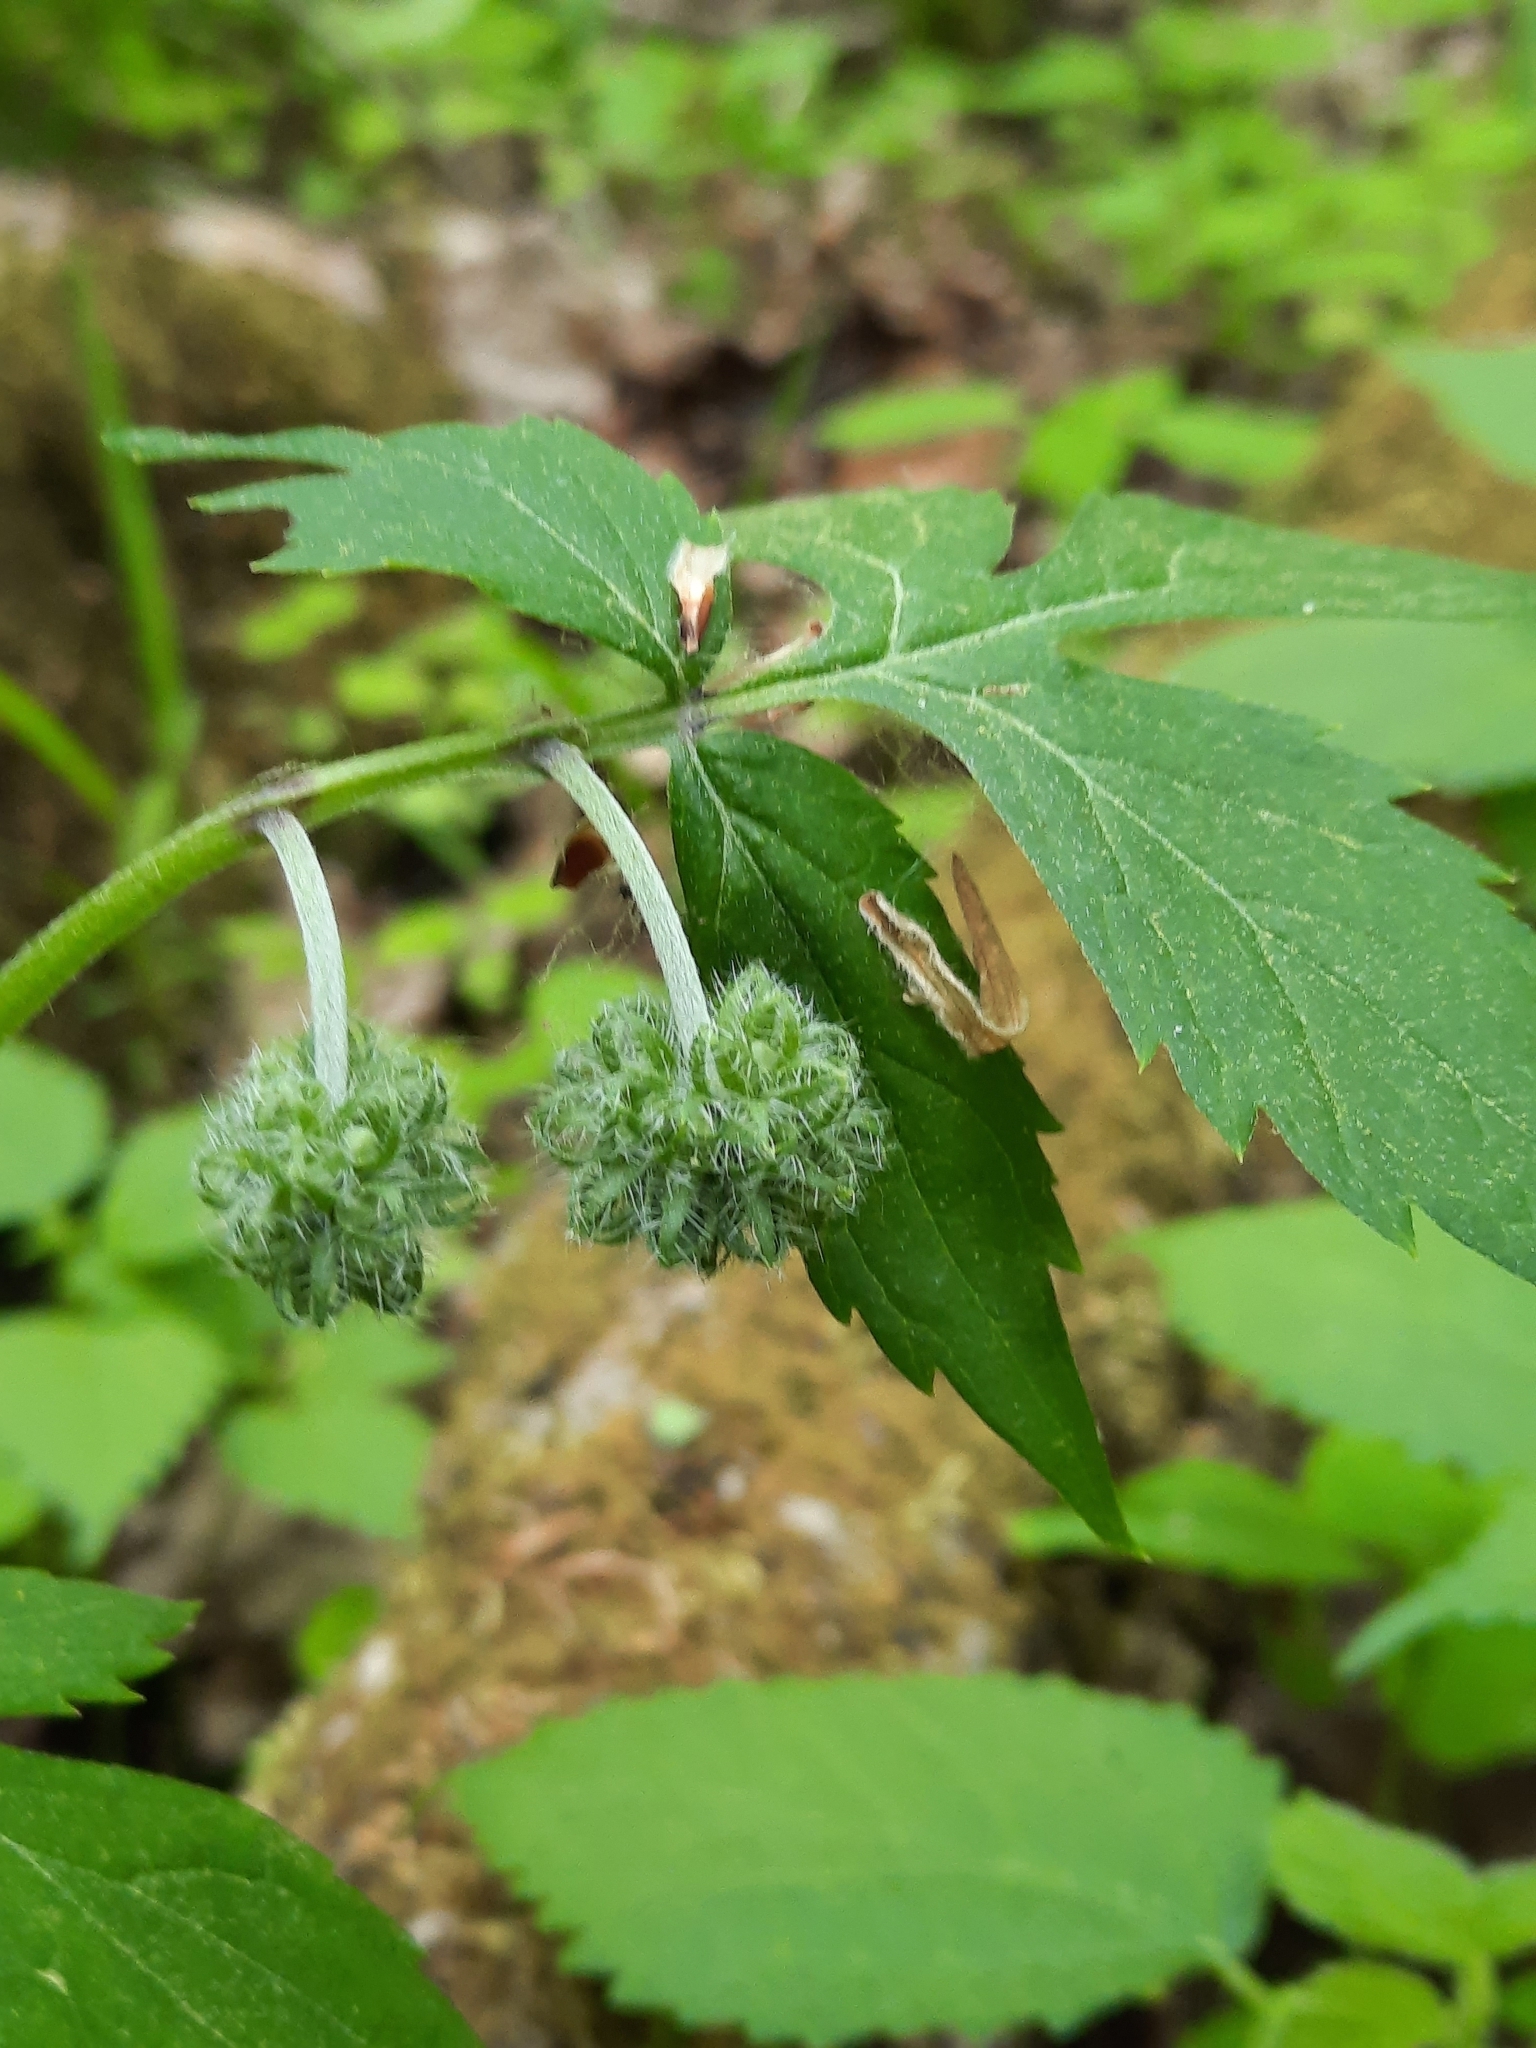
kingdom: Plantae
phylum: Tracheophyta
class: Magnoliopsida
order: Boraginales
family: Hydrophyllaceae
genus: Hydrophyllum
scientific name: Hydrophyllum virginianum
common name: Virginia waterleaf
